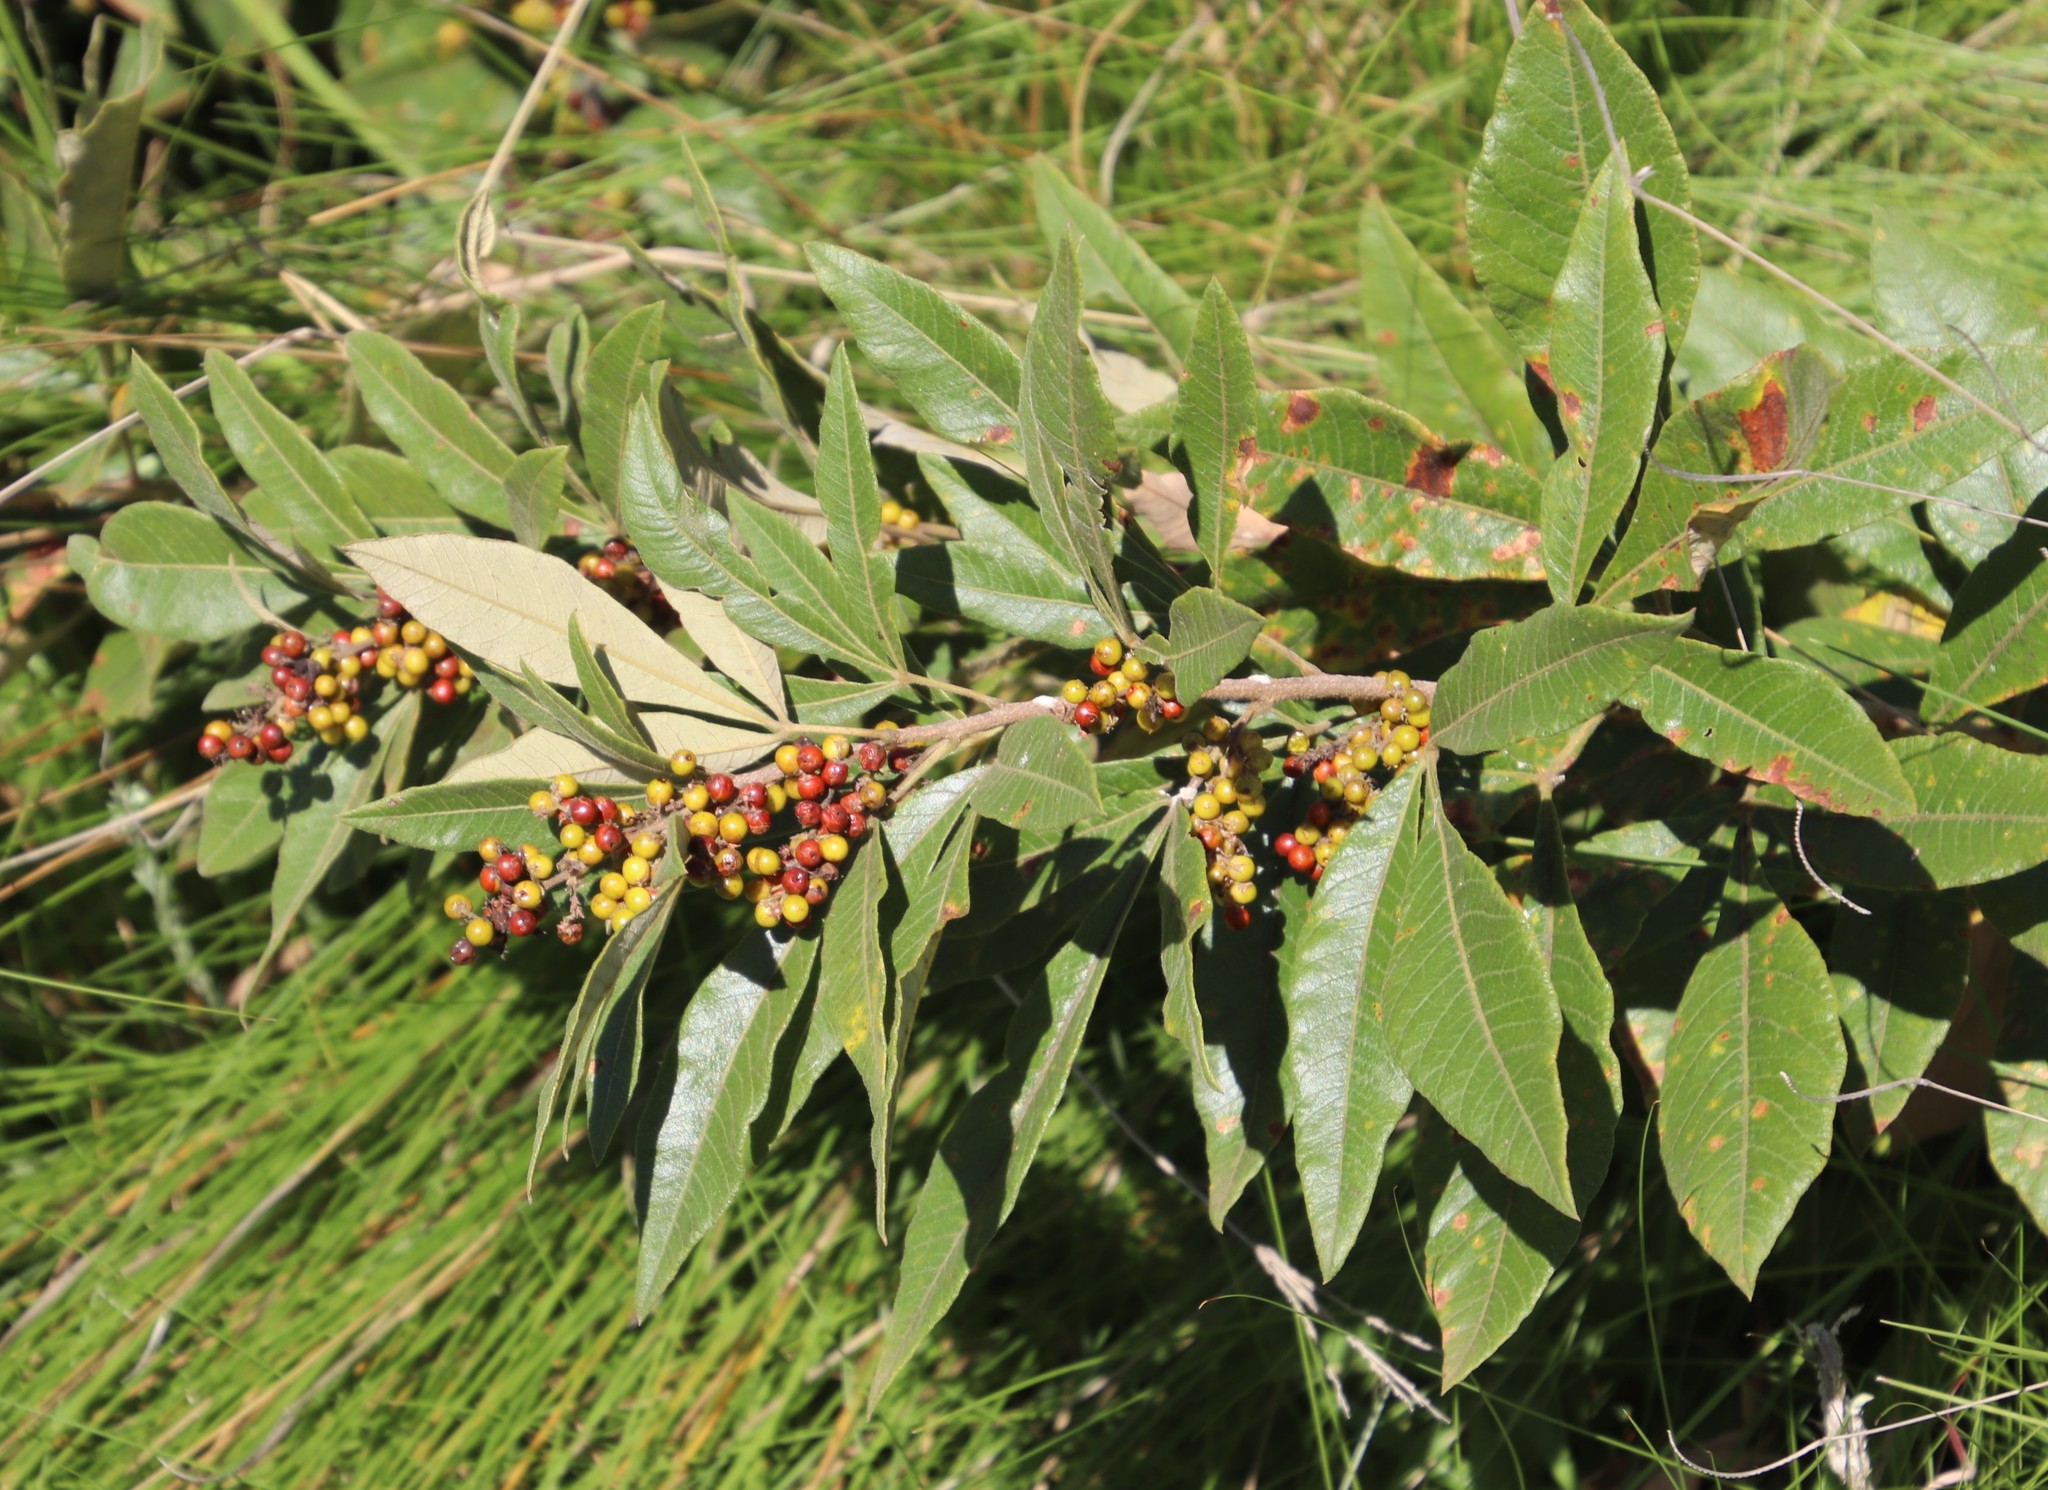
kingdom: Plantae
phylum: Tracheophyta
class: Magnoliopsida
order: Sapindales
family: Anacardiaceae
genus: Searsia
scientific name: Searsia discolor
